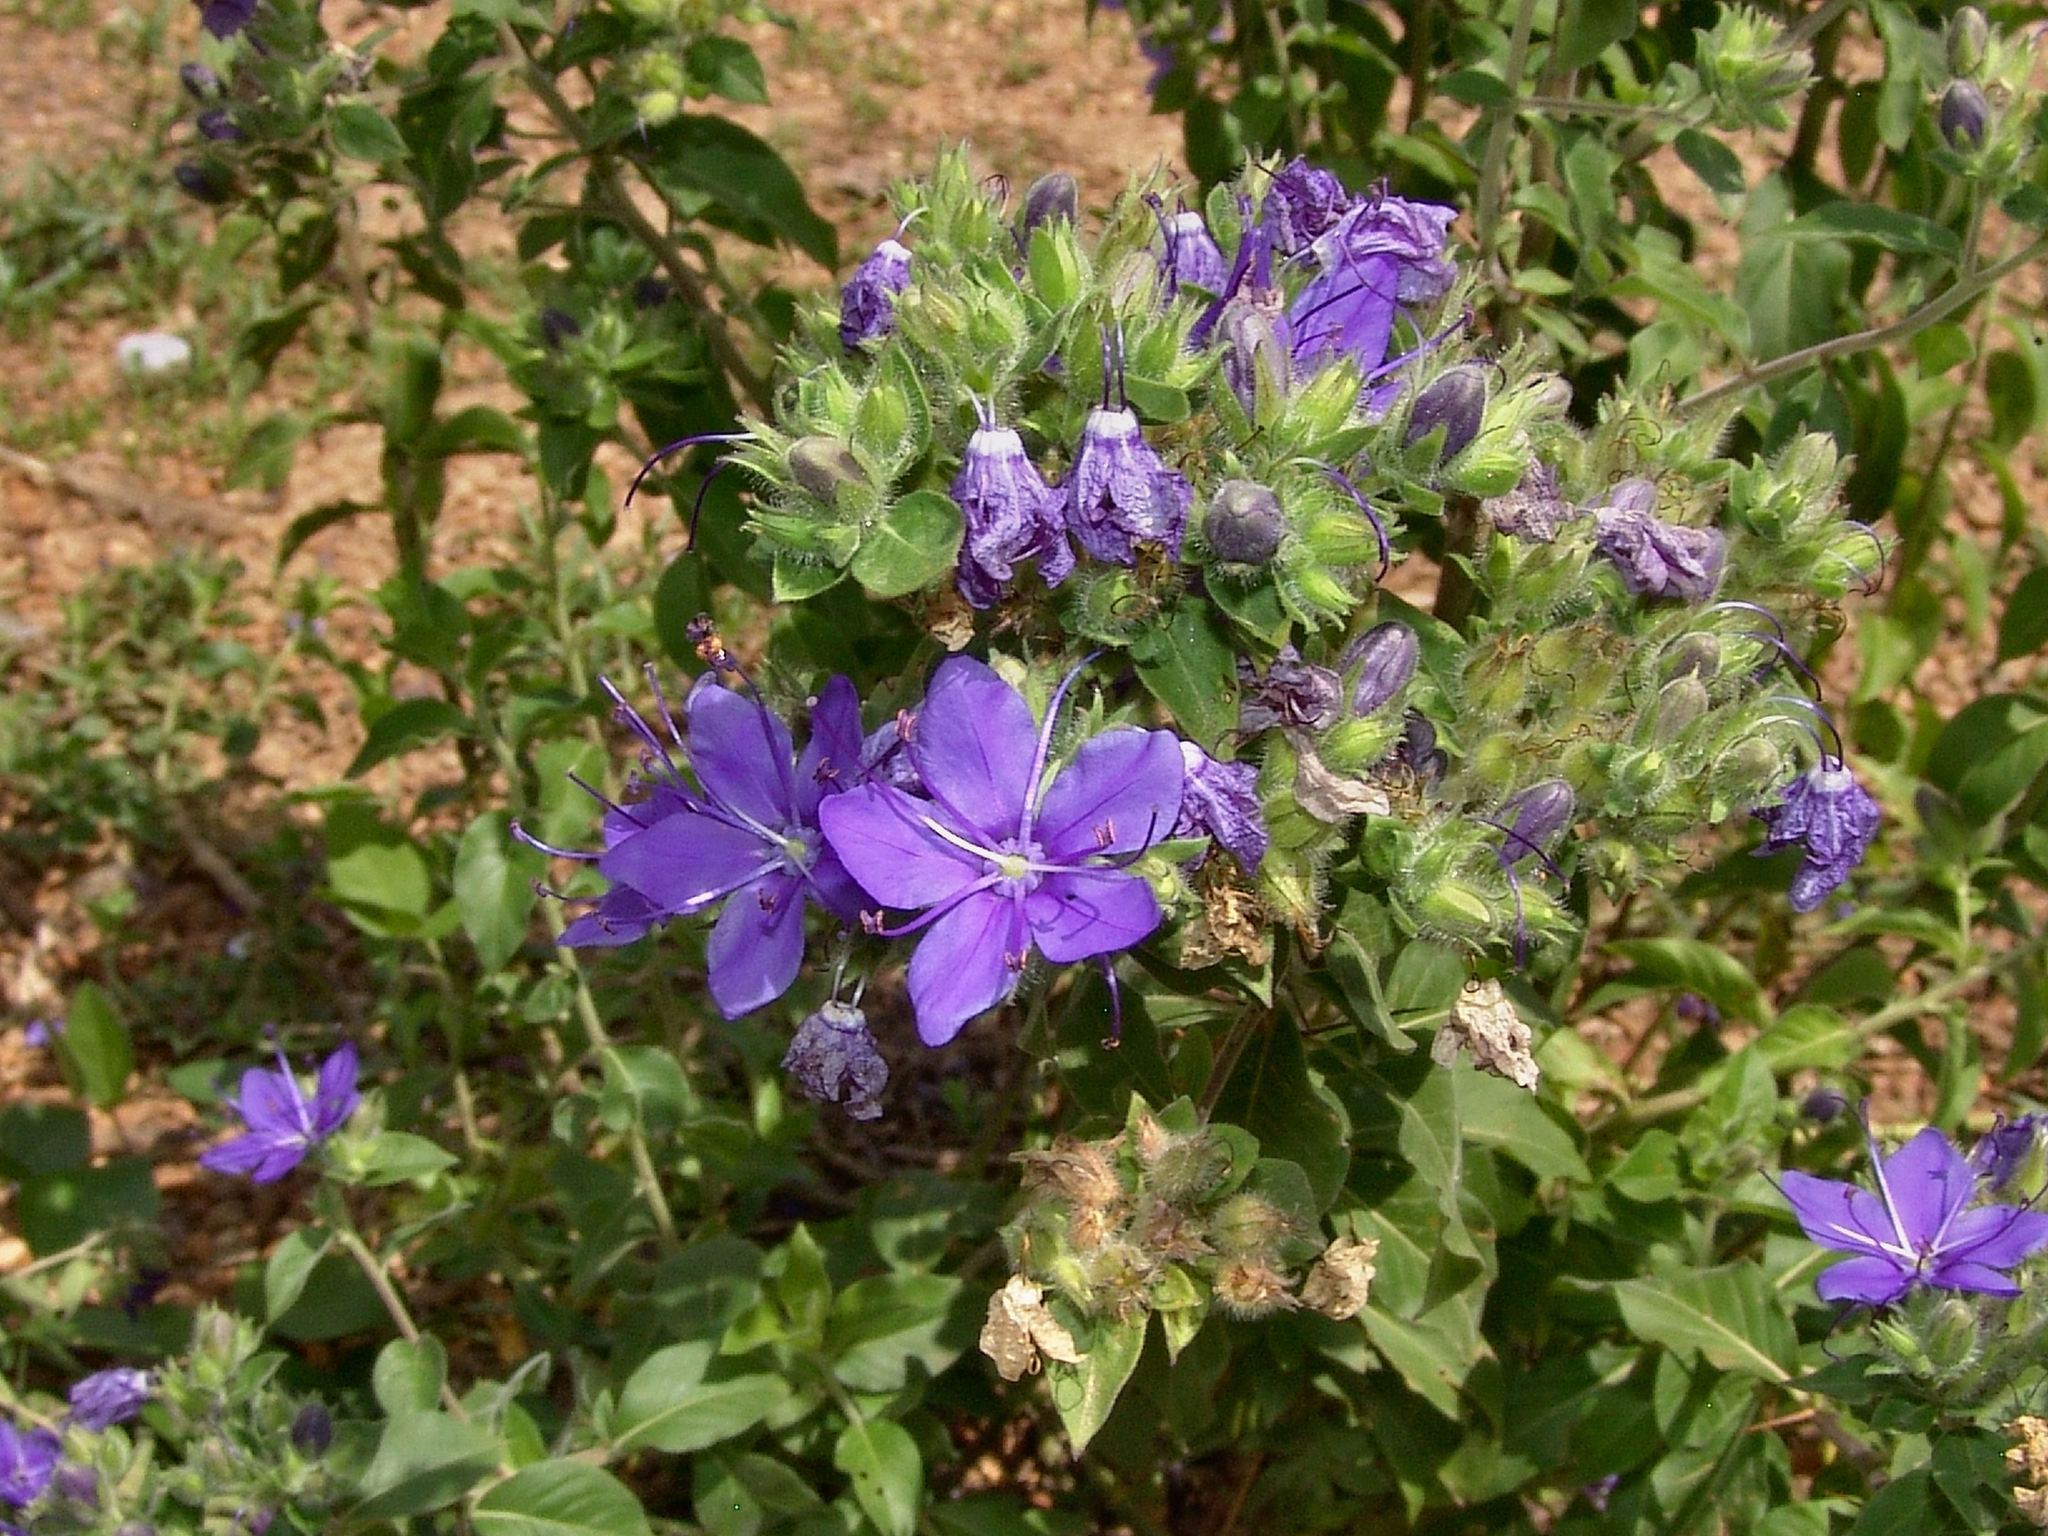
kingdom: Plantae
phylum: Tracheophyta
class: Magnoliopsida
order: Solanales
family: Hydroleaceae
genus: Hydrolea
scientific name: Hydrolea ovata
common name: Ovate false fiddleleaf
